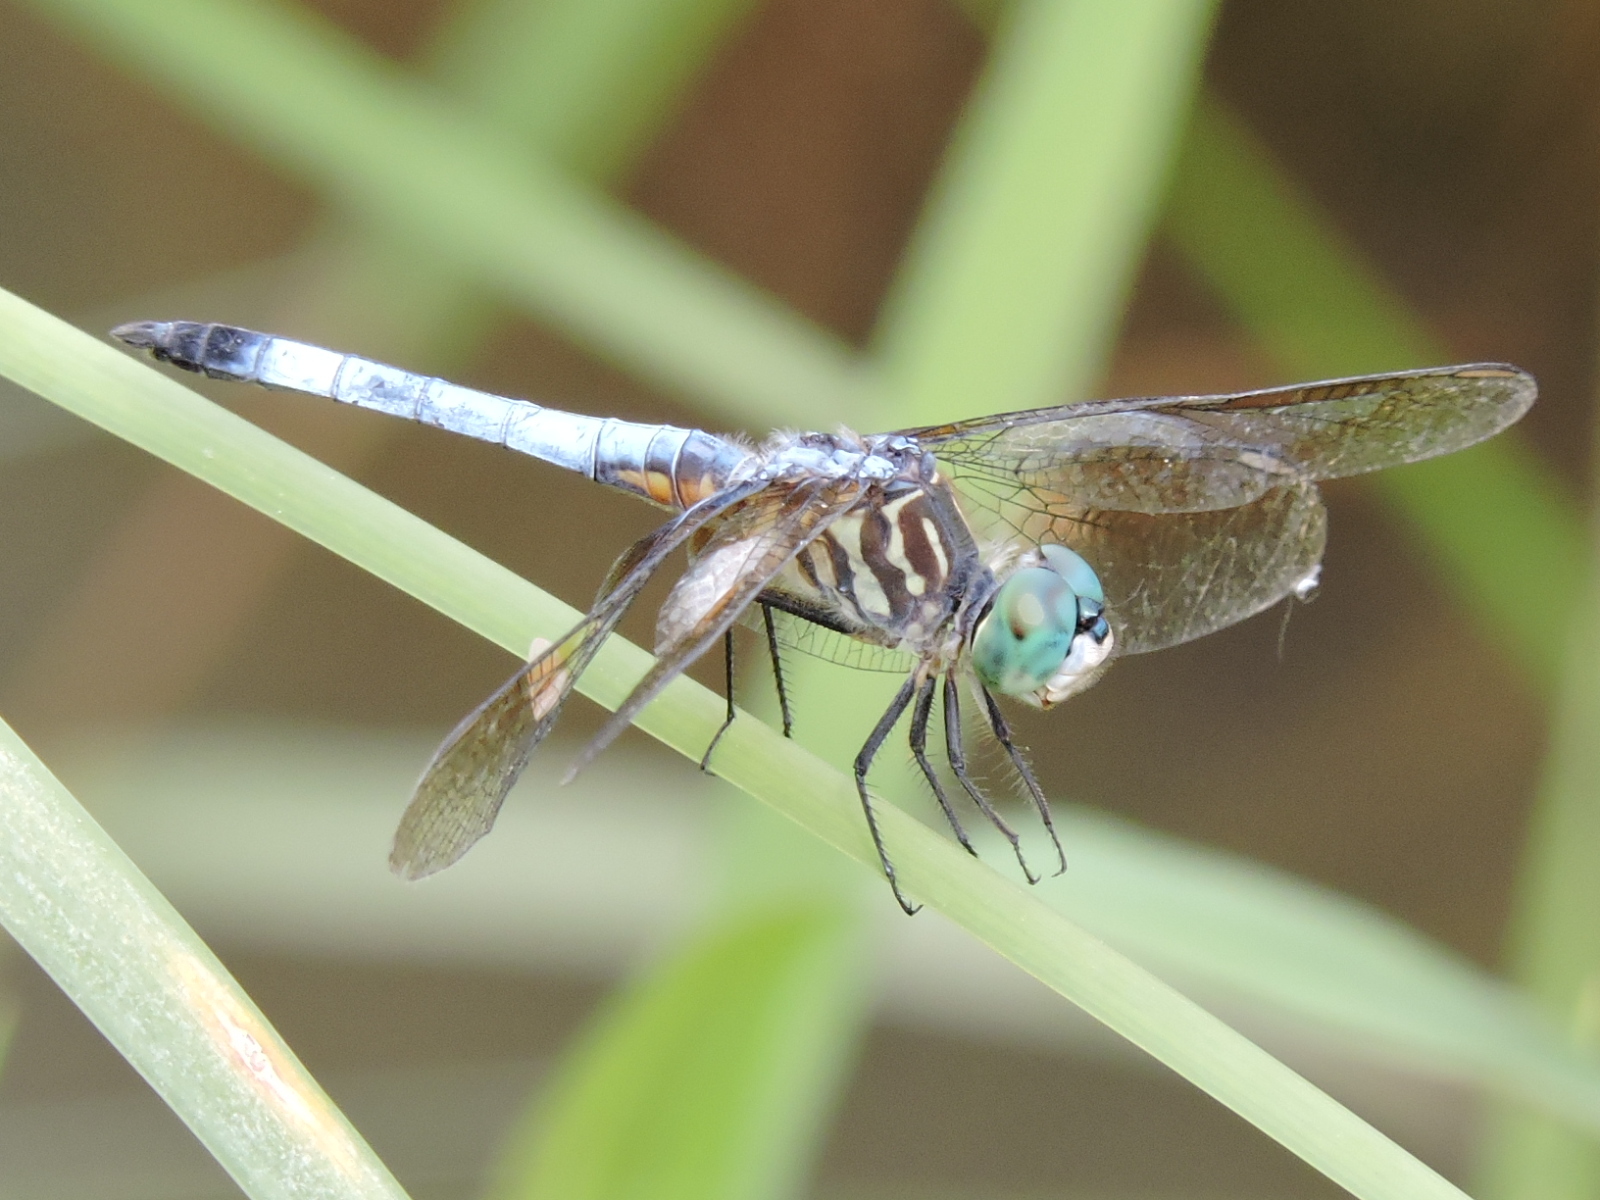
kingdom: Animalia
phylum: Arthropoda
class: Insecta
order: Odonata
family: Libellulidae
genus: Pachydiplax
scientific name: Pachydiplax longipennis
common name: Blue dasher
